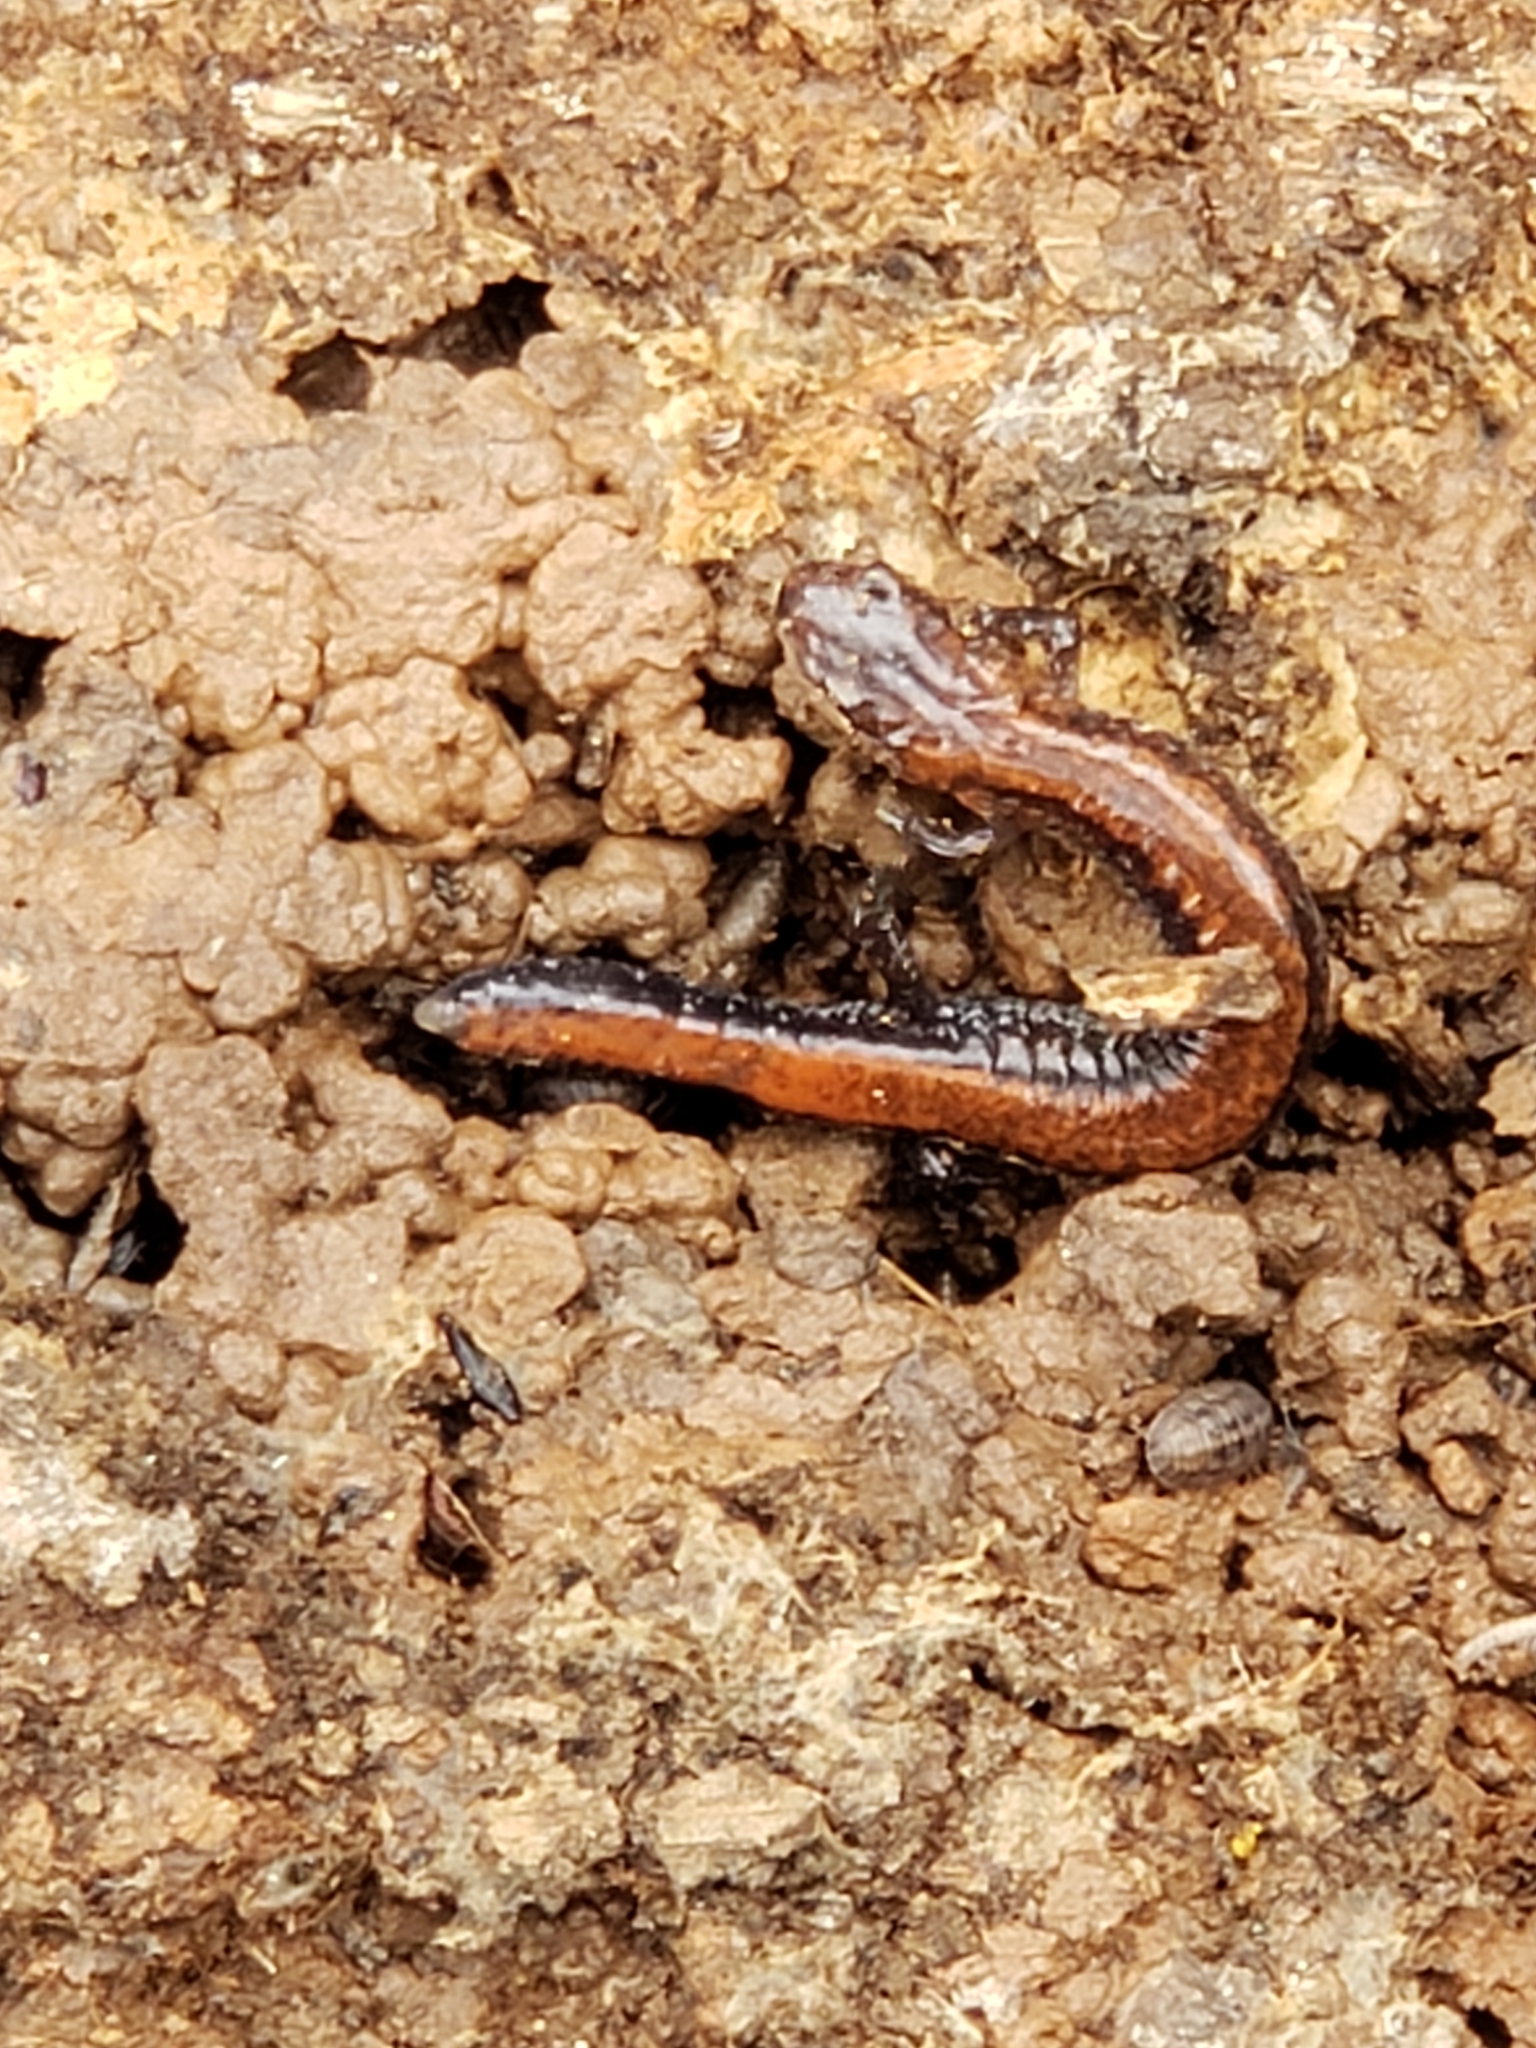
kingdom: Animalia
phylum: Chordata
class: Amphibia
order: Caudata
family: Plethodontidae
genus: Plethodon
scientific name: Plethodon cinereus
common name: Redback salamander
